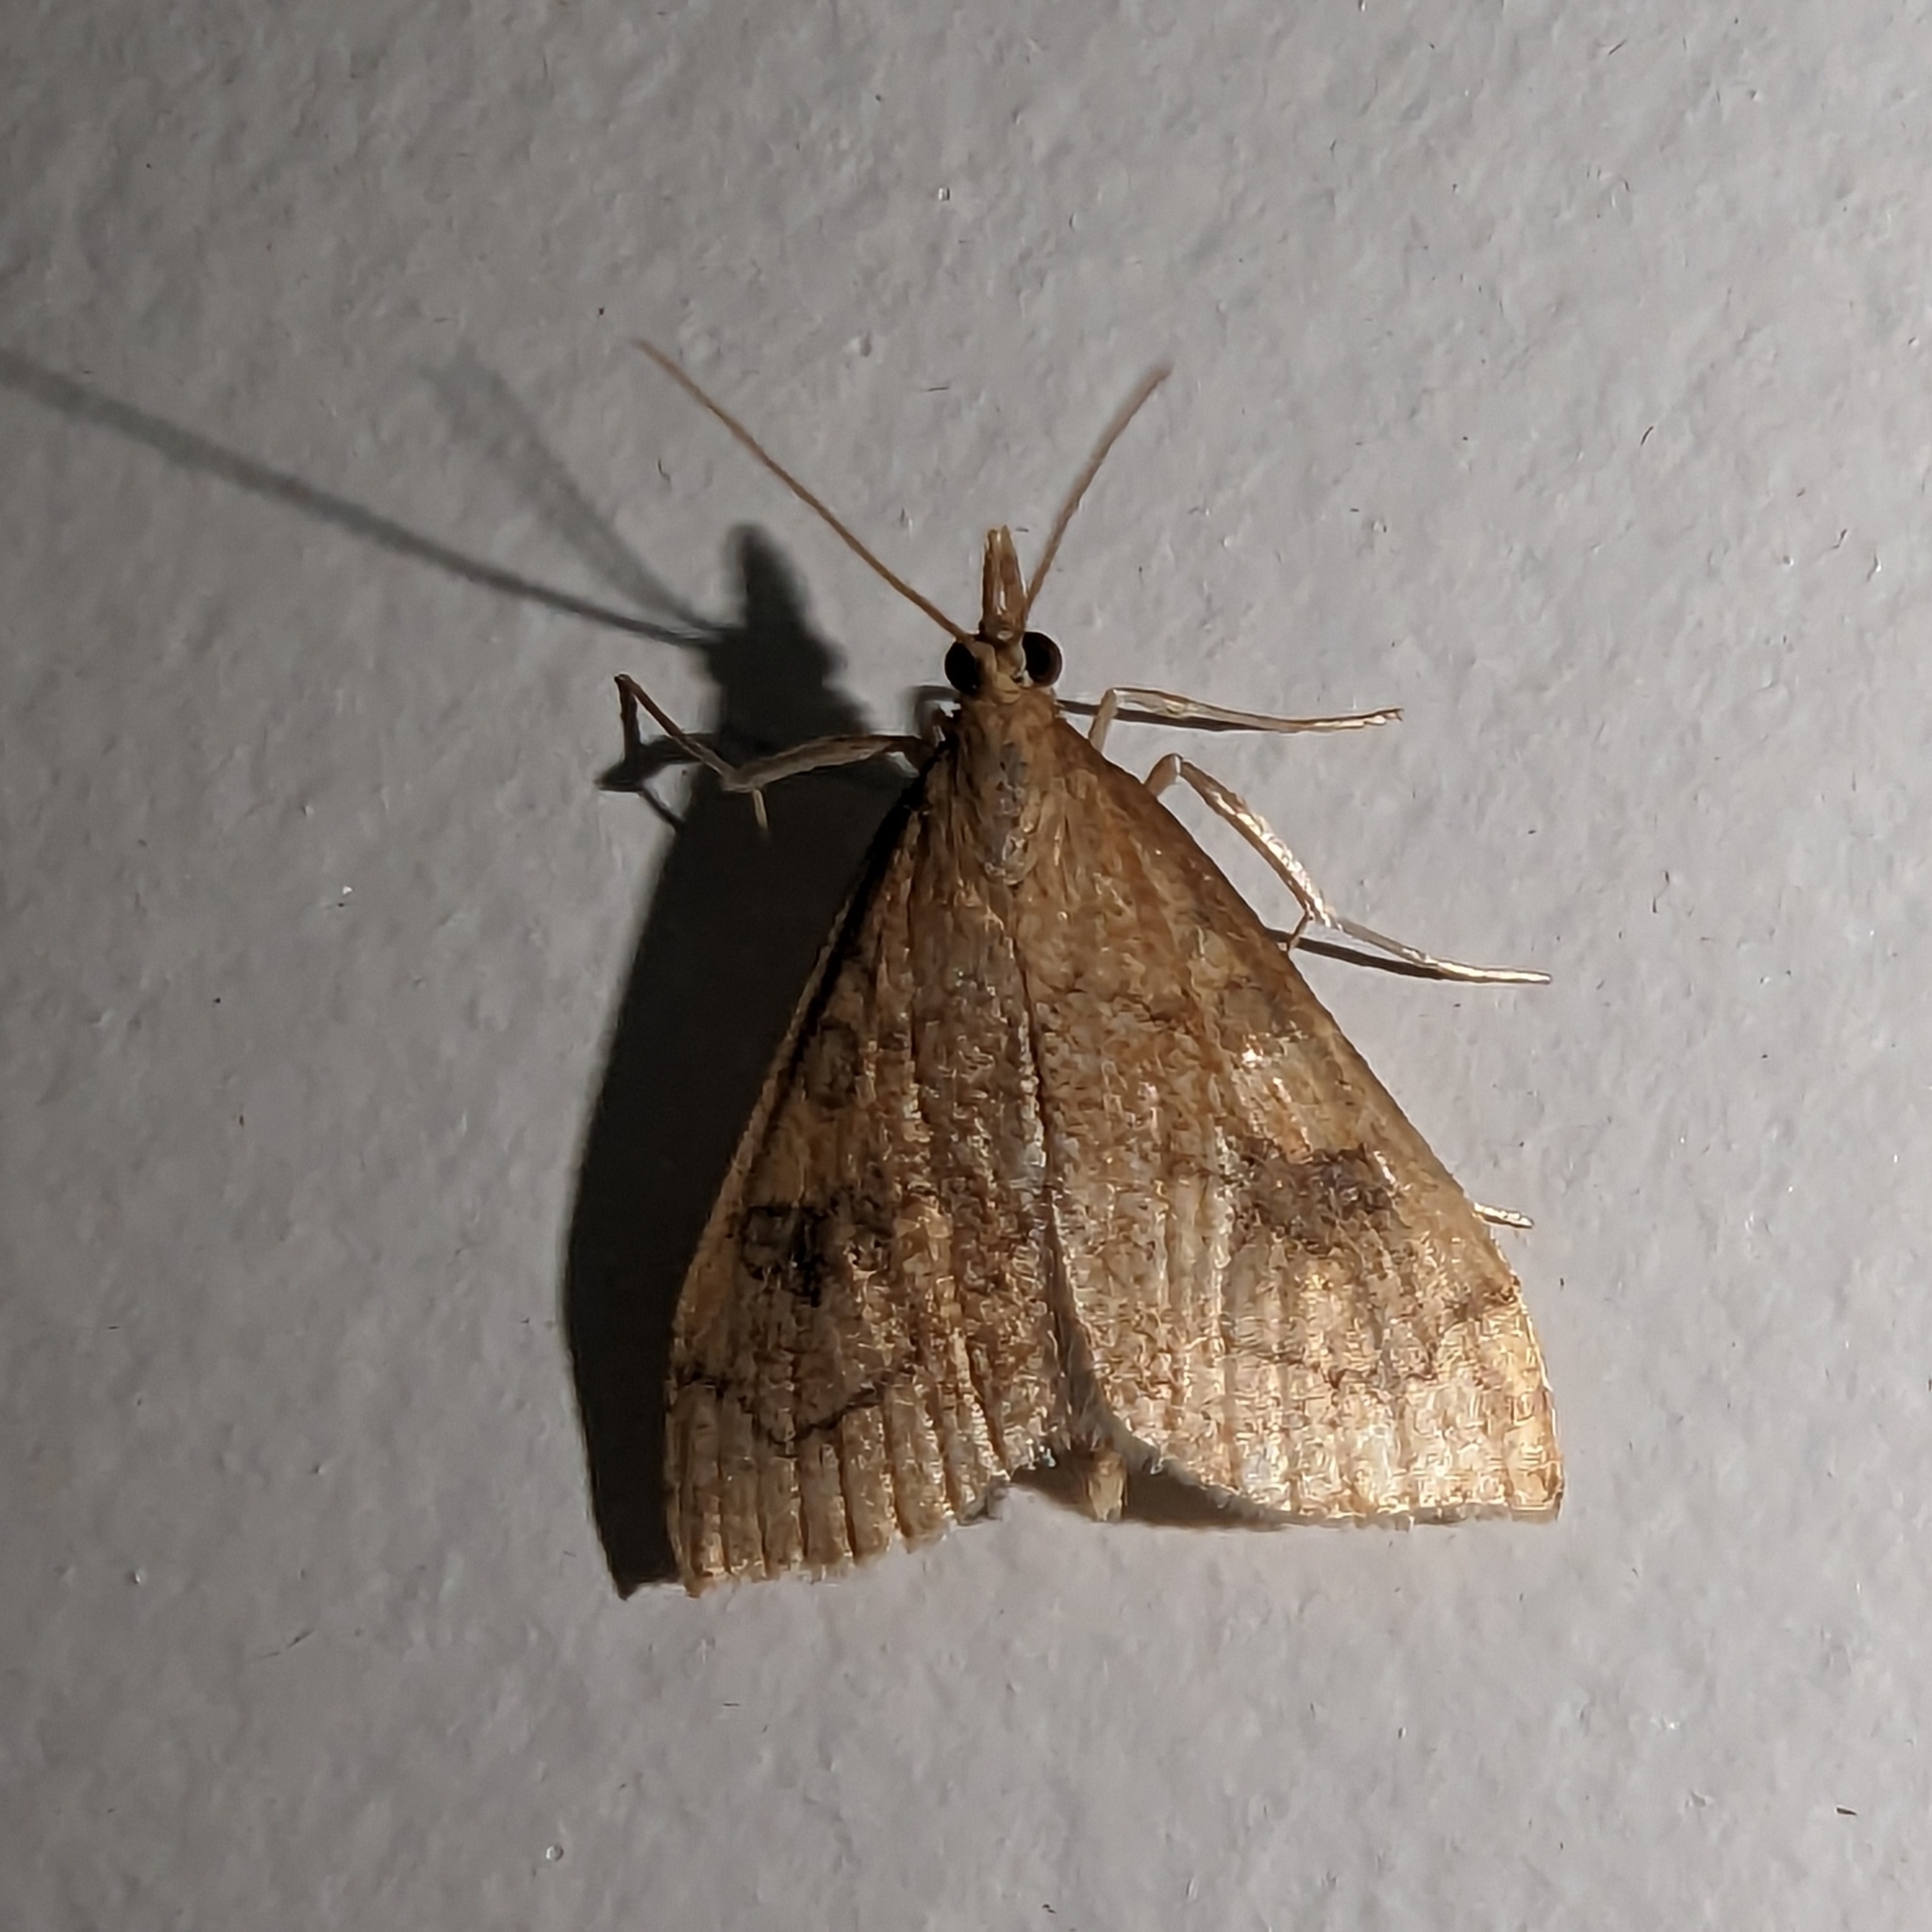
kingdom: Animalia
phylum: Arthropoda
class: Insecta
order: Lepidoptera
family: Crambidae
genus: Udea
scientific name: Udea profundalis
